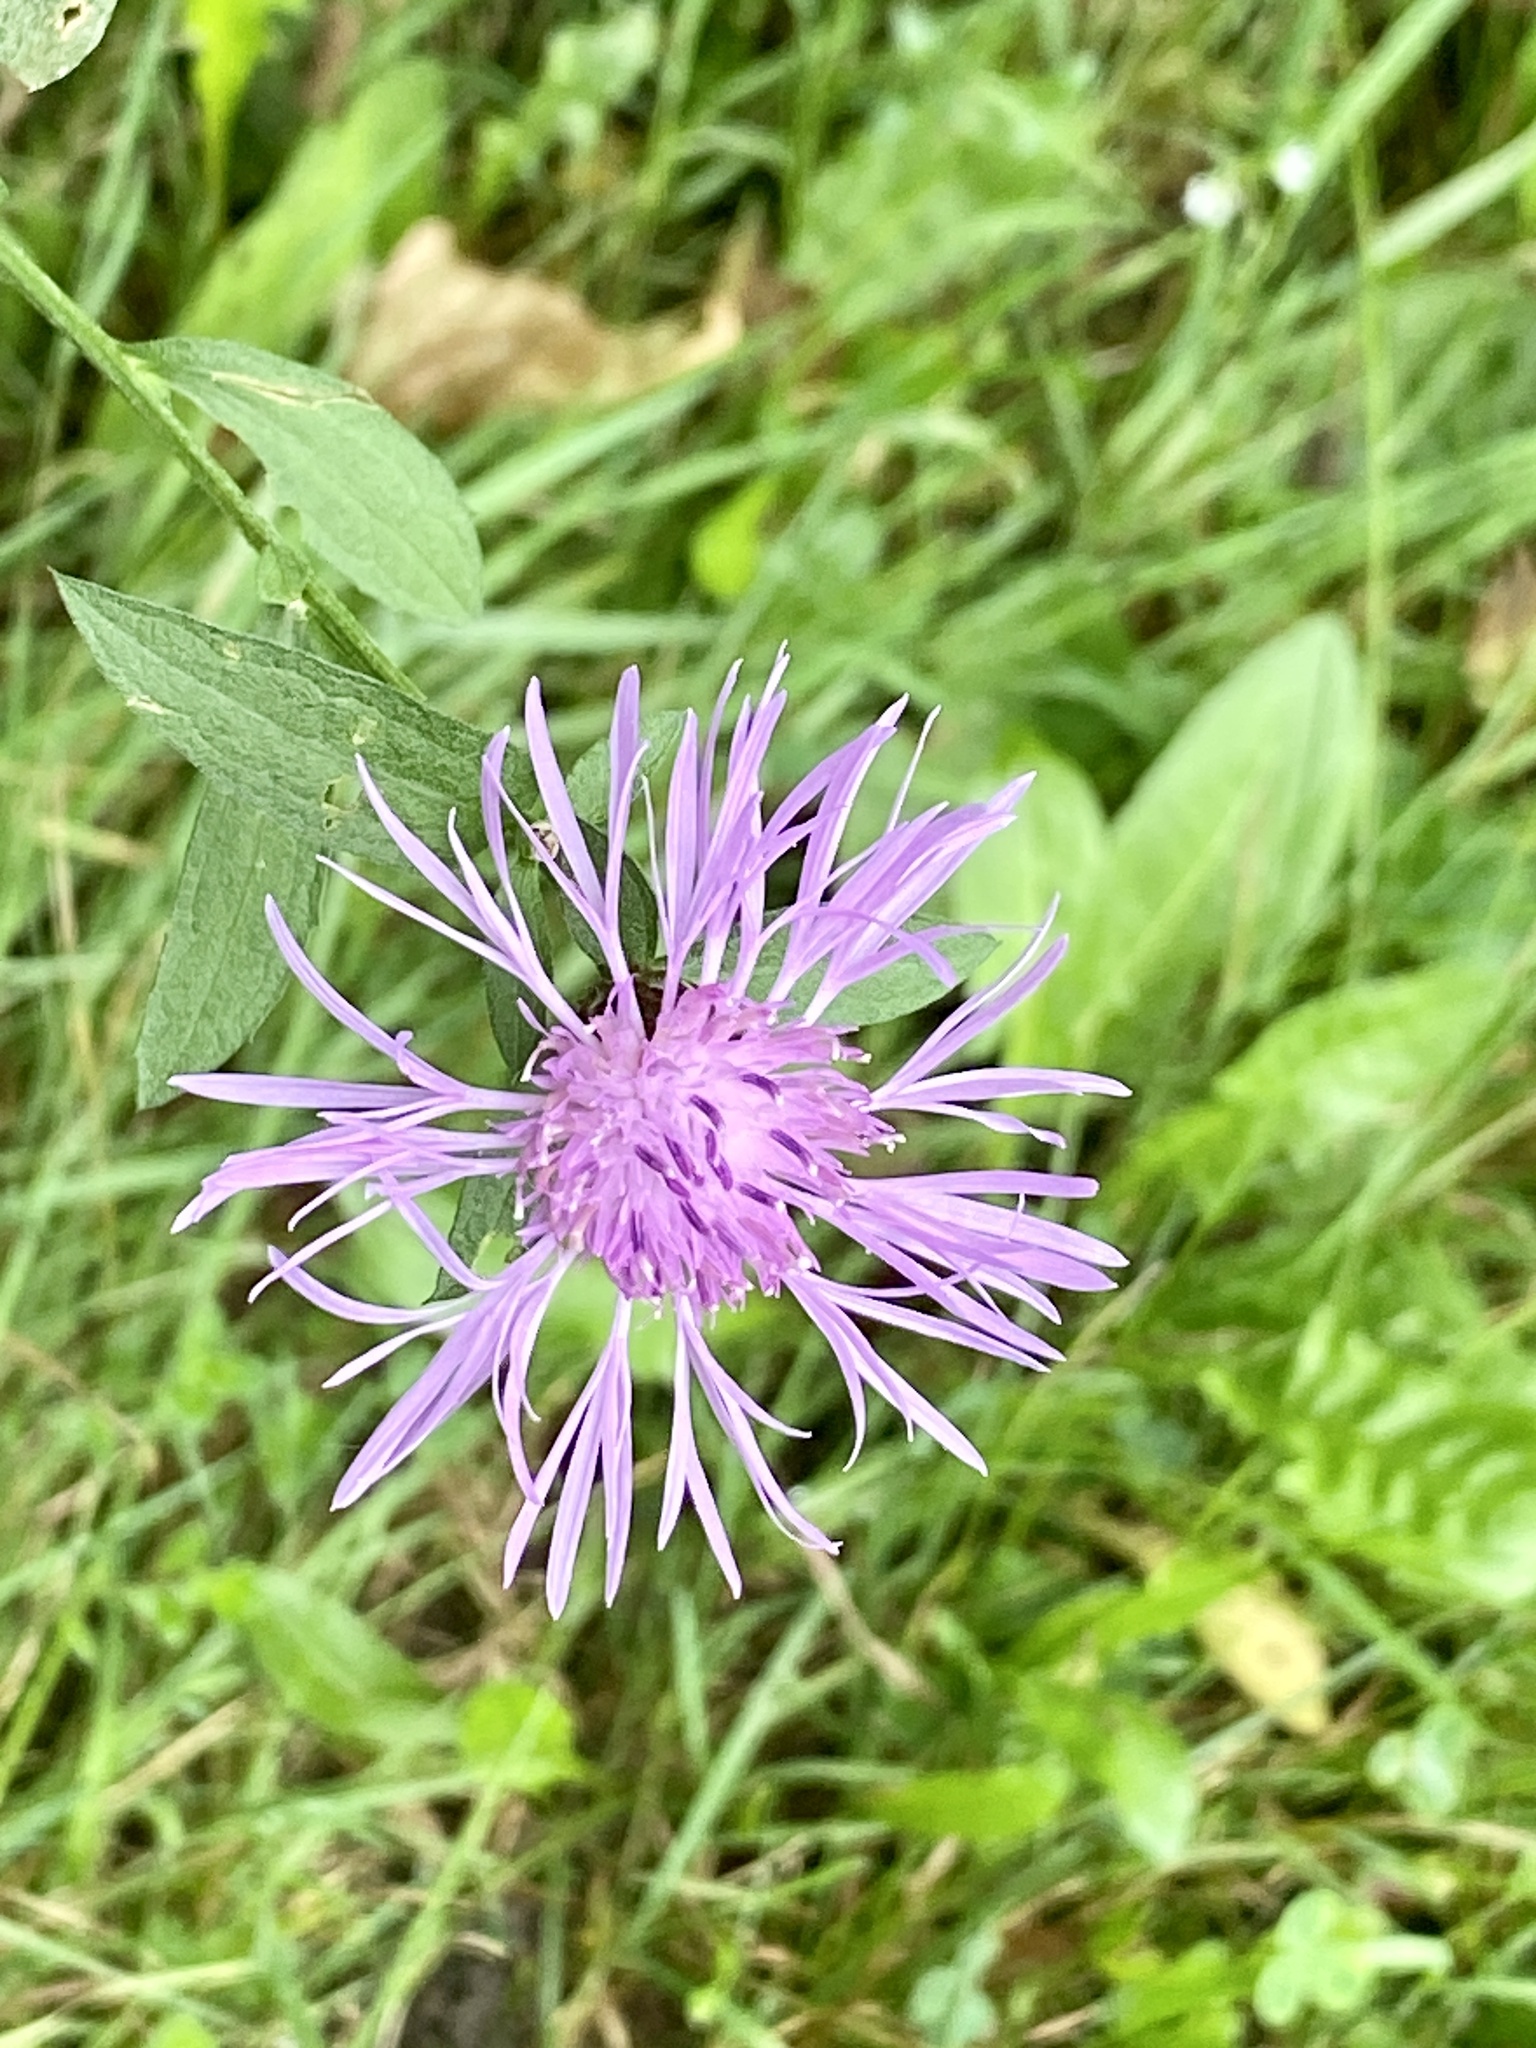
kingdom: Plantae
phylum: Tracheophyta
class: Magnoliopsida
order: Asterales
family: Asteraceae
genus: Centaurea
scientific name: Centaurea nigrescens
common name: Tyrol knapweed
